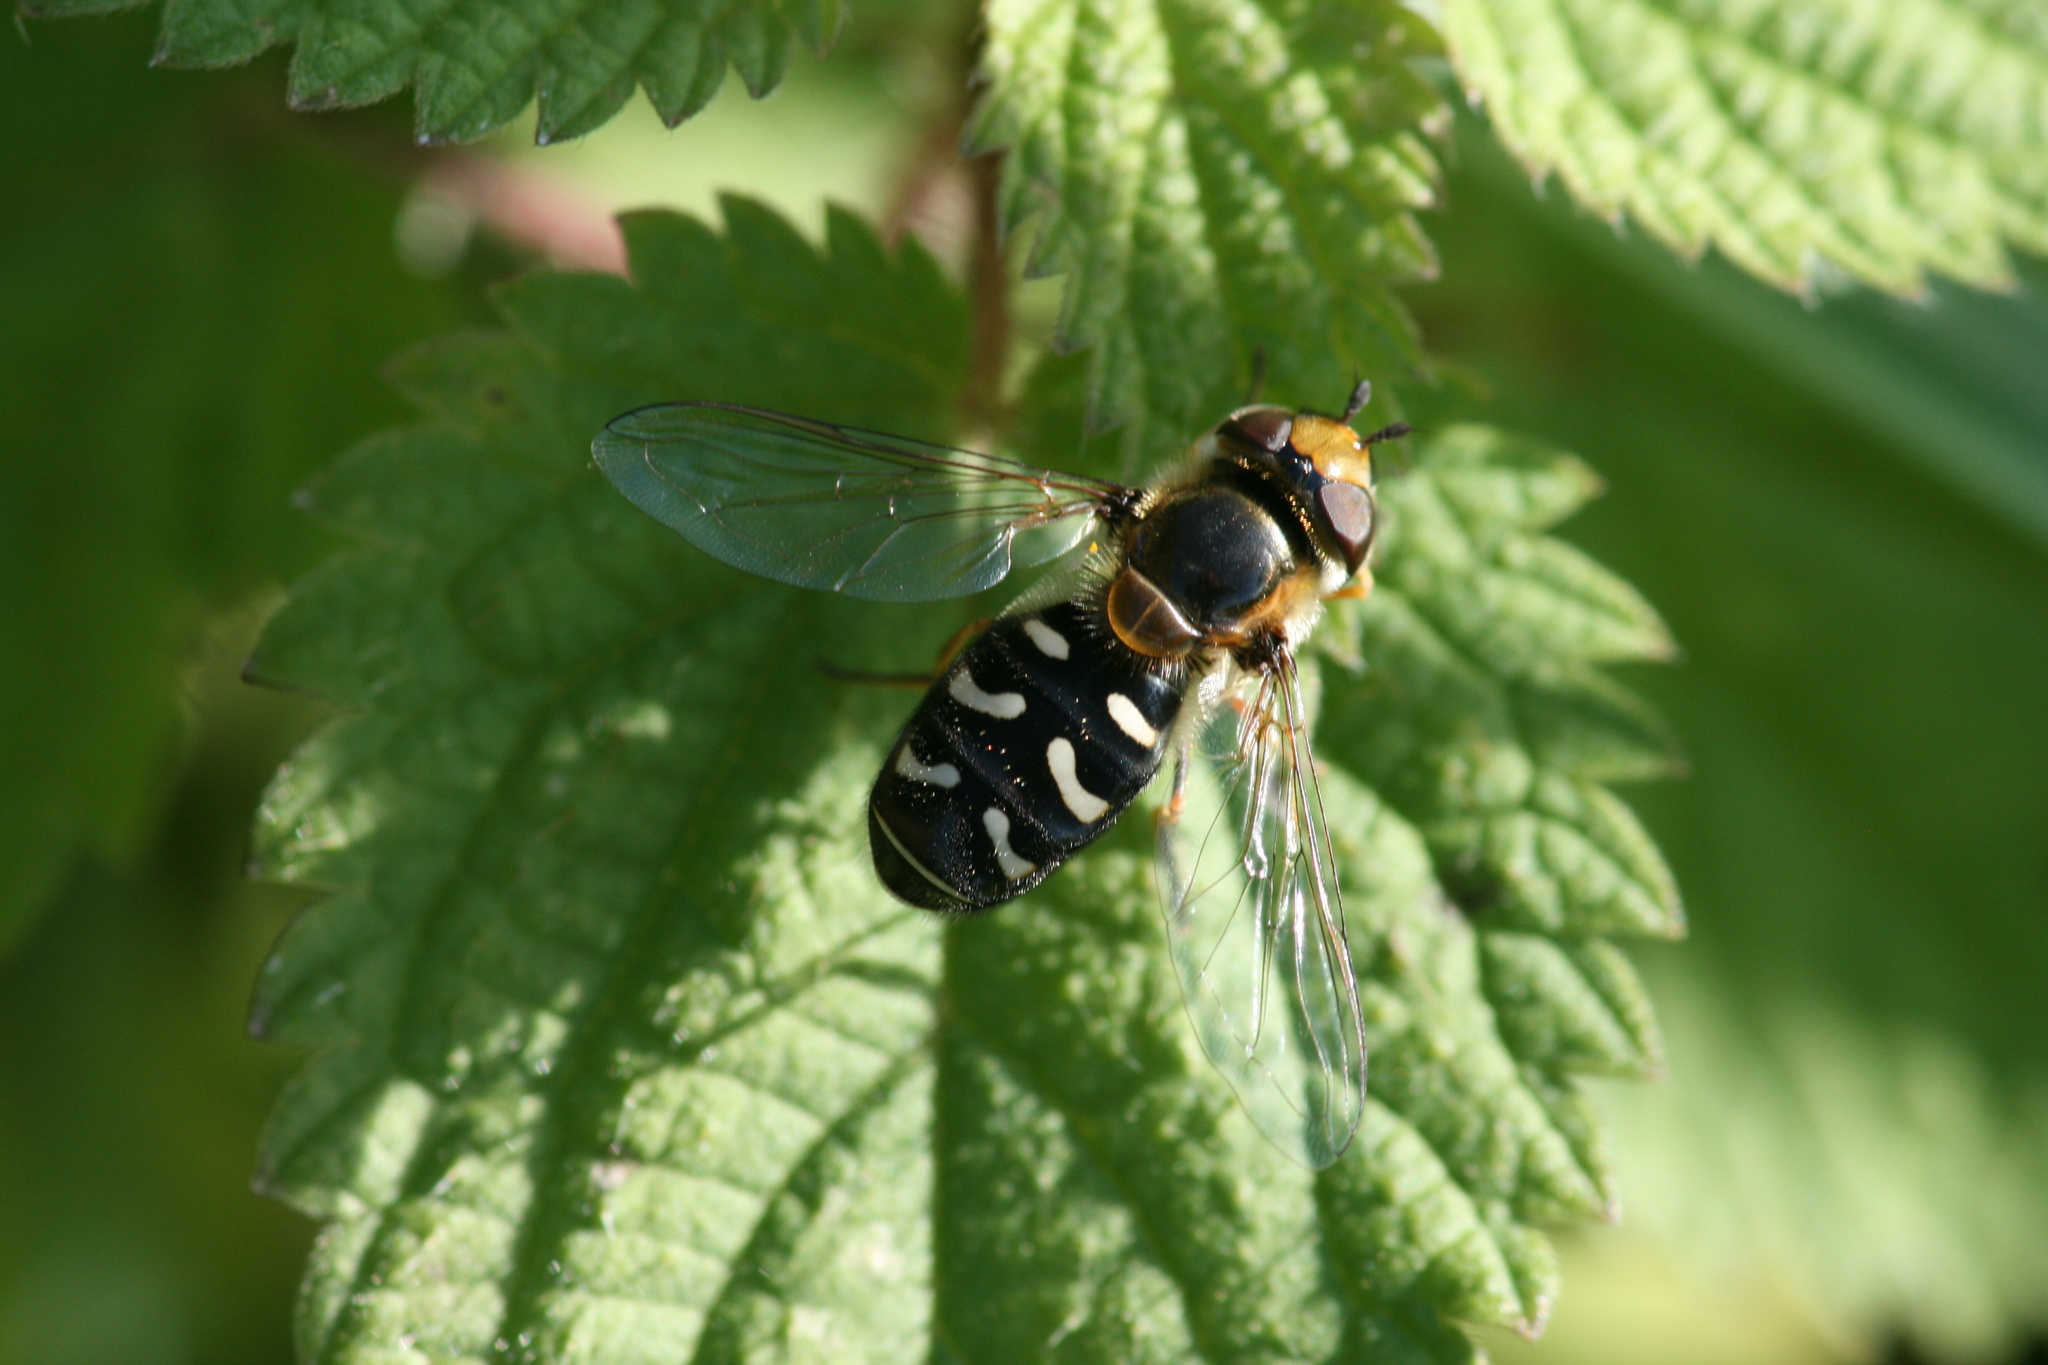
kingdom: Animalia
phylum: Arthropoda
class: Insecta
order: Diptera
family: Syrphidae
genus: Scaeva
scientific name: Scaeva pyrastri
